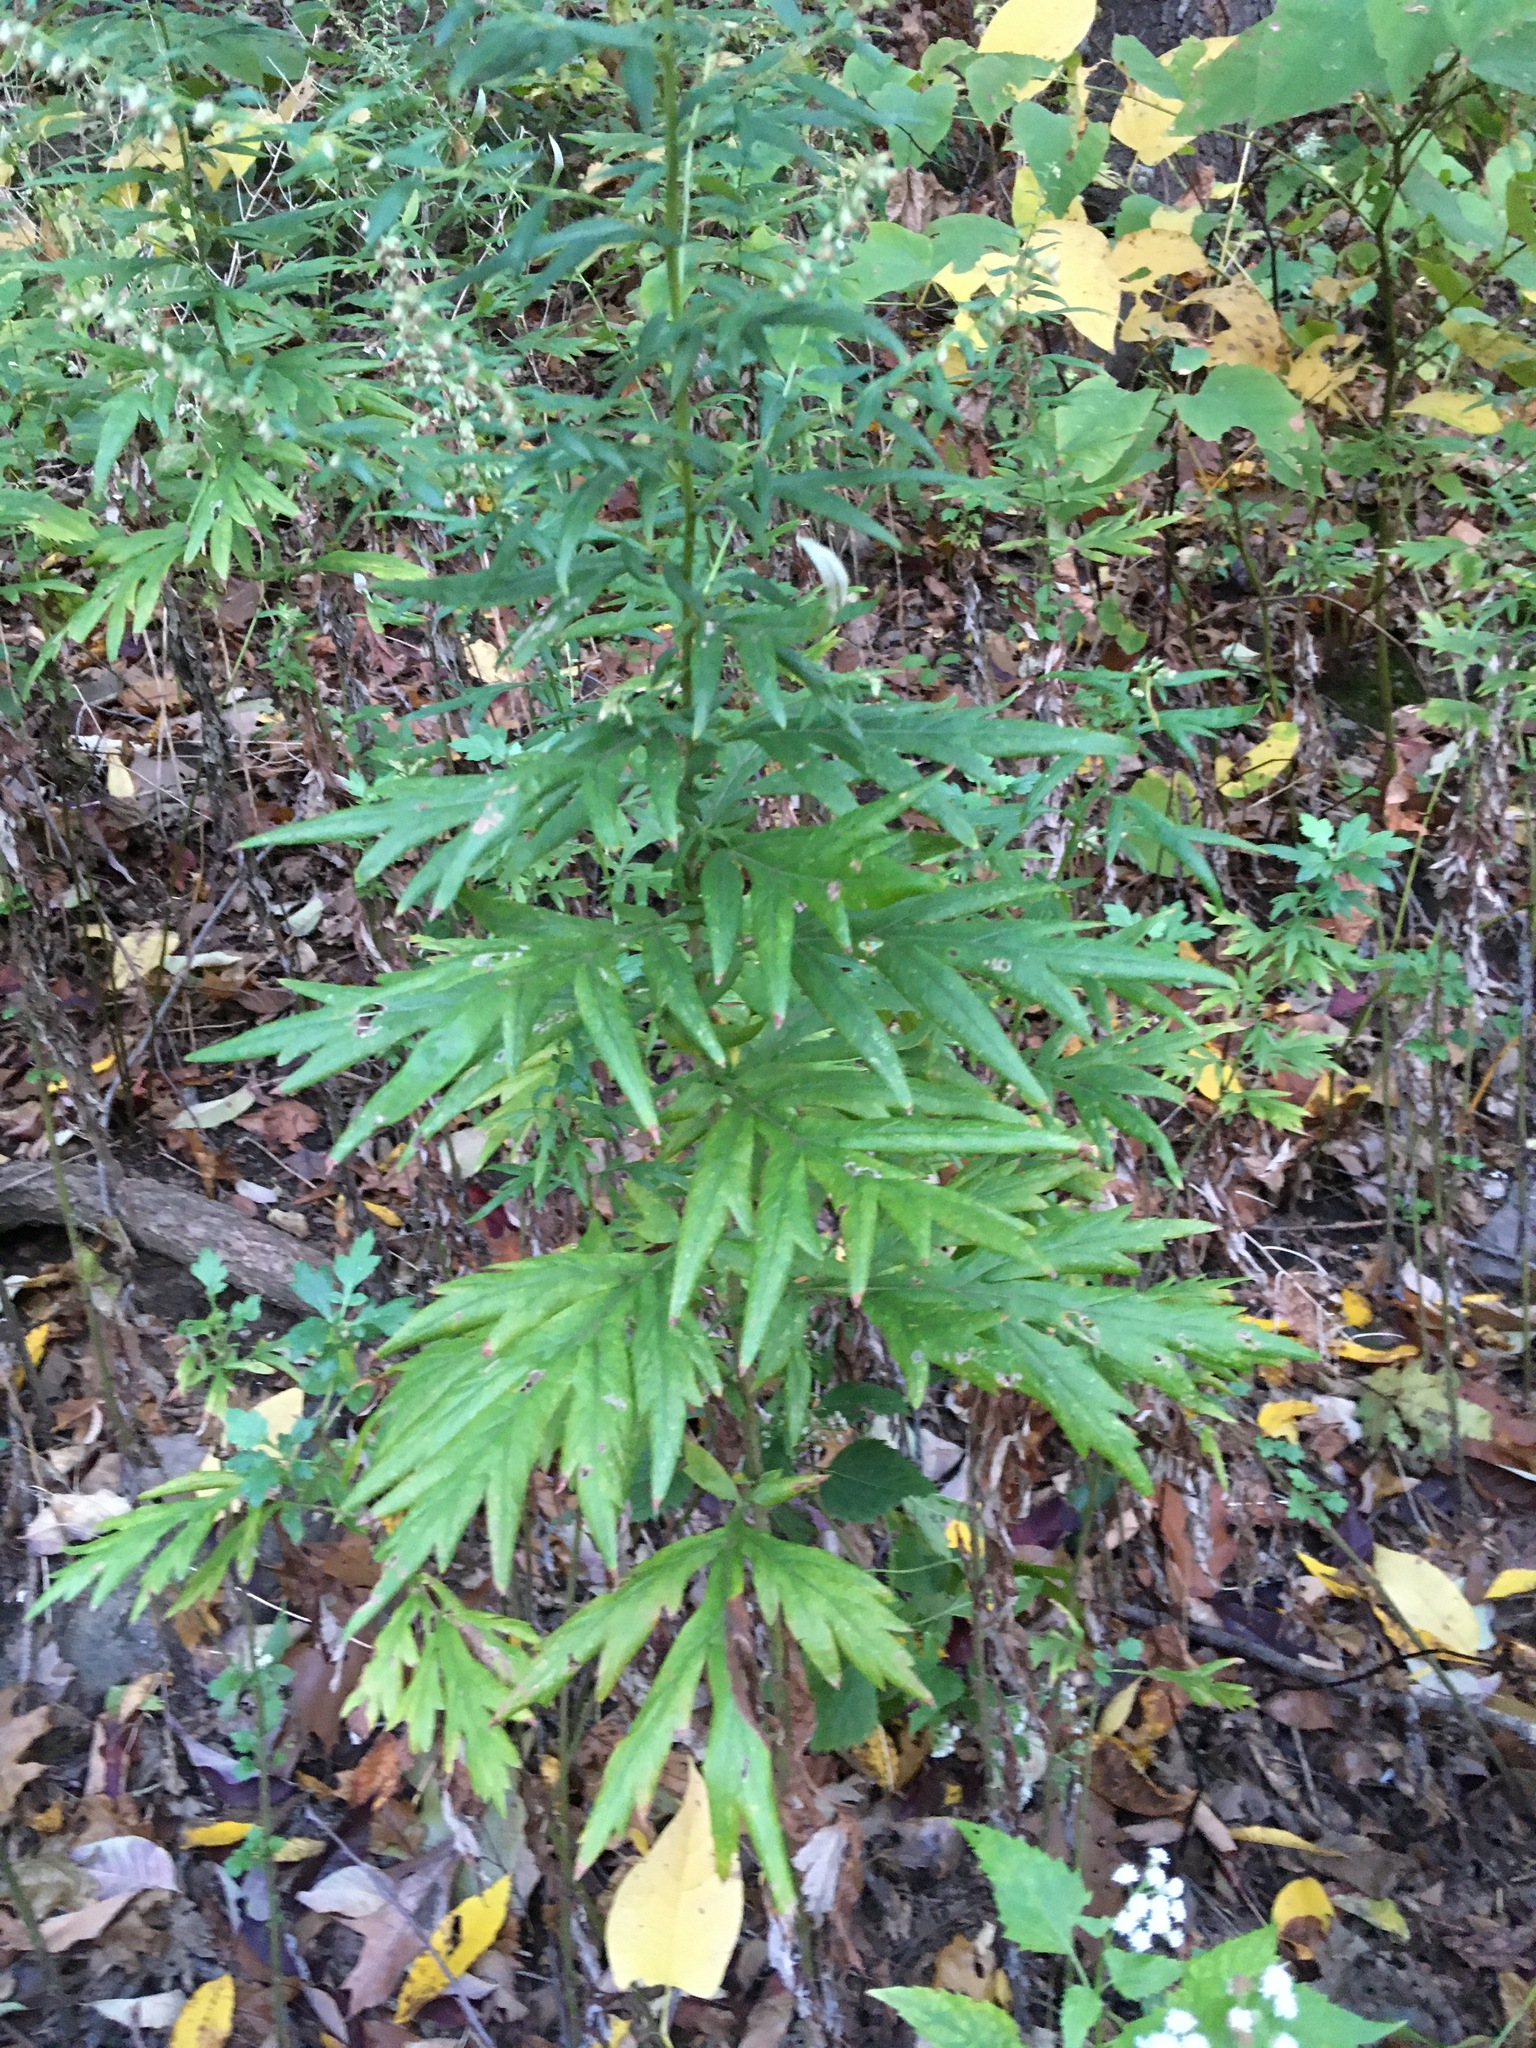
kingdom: Plantae
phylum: Tracheophyta
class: Magnoliopsida
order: Asterales
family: Asteraceae
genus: Artemisia
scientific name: Artemisia vulgaris
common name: Mugwort
